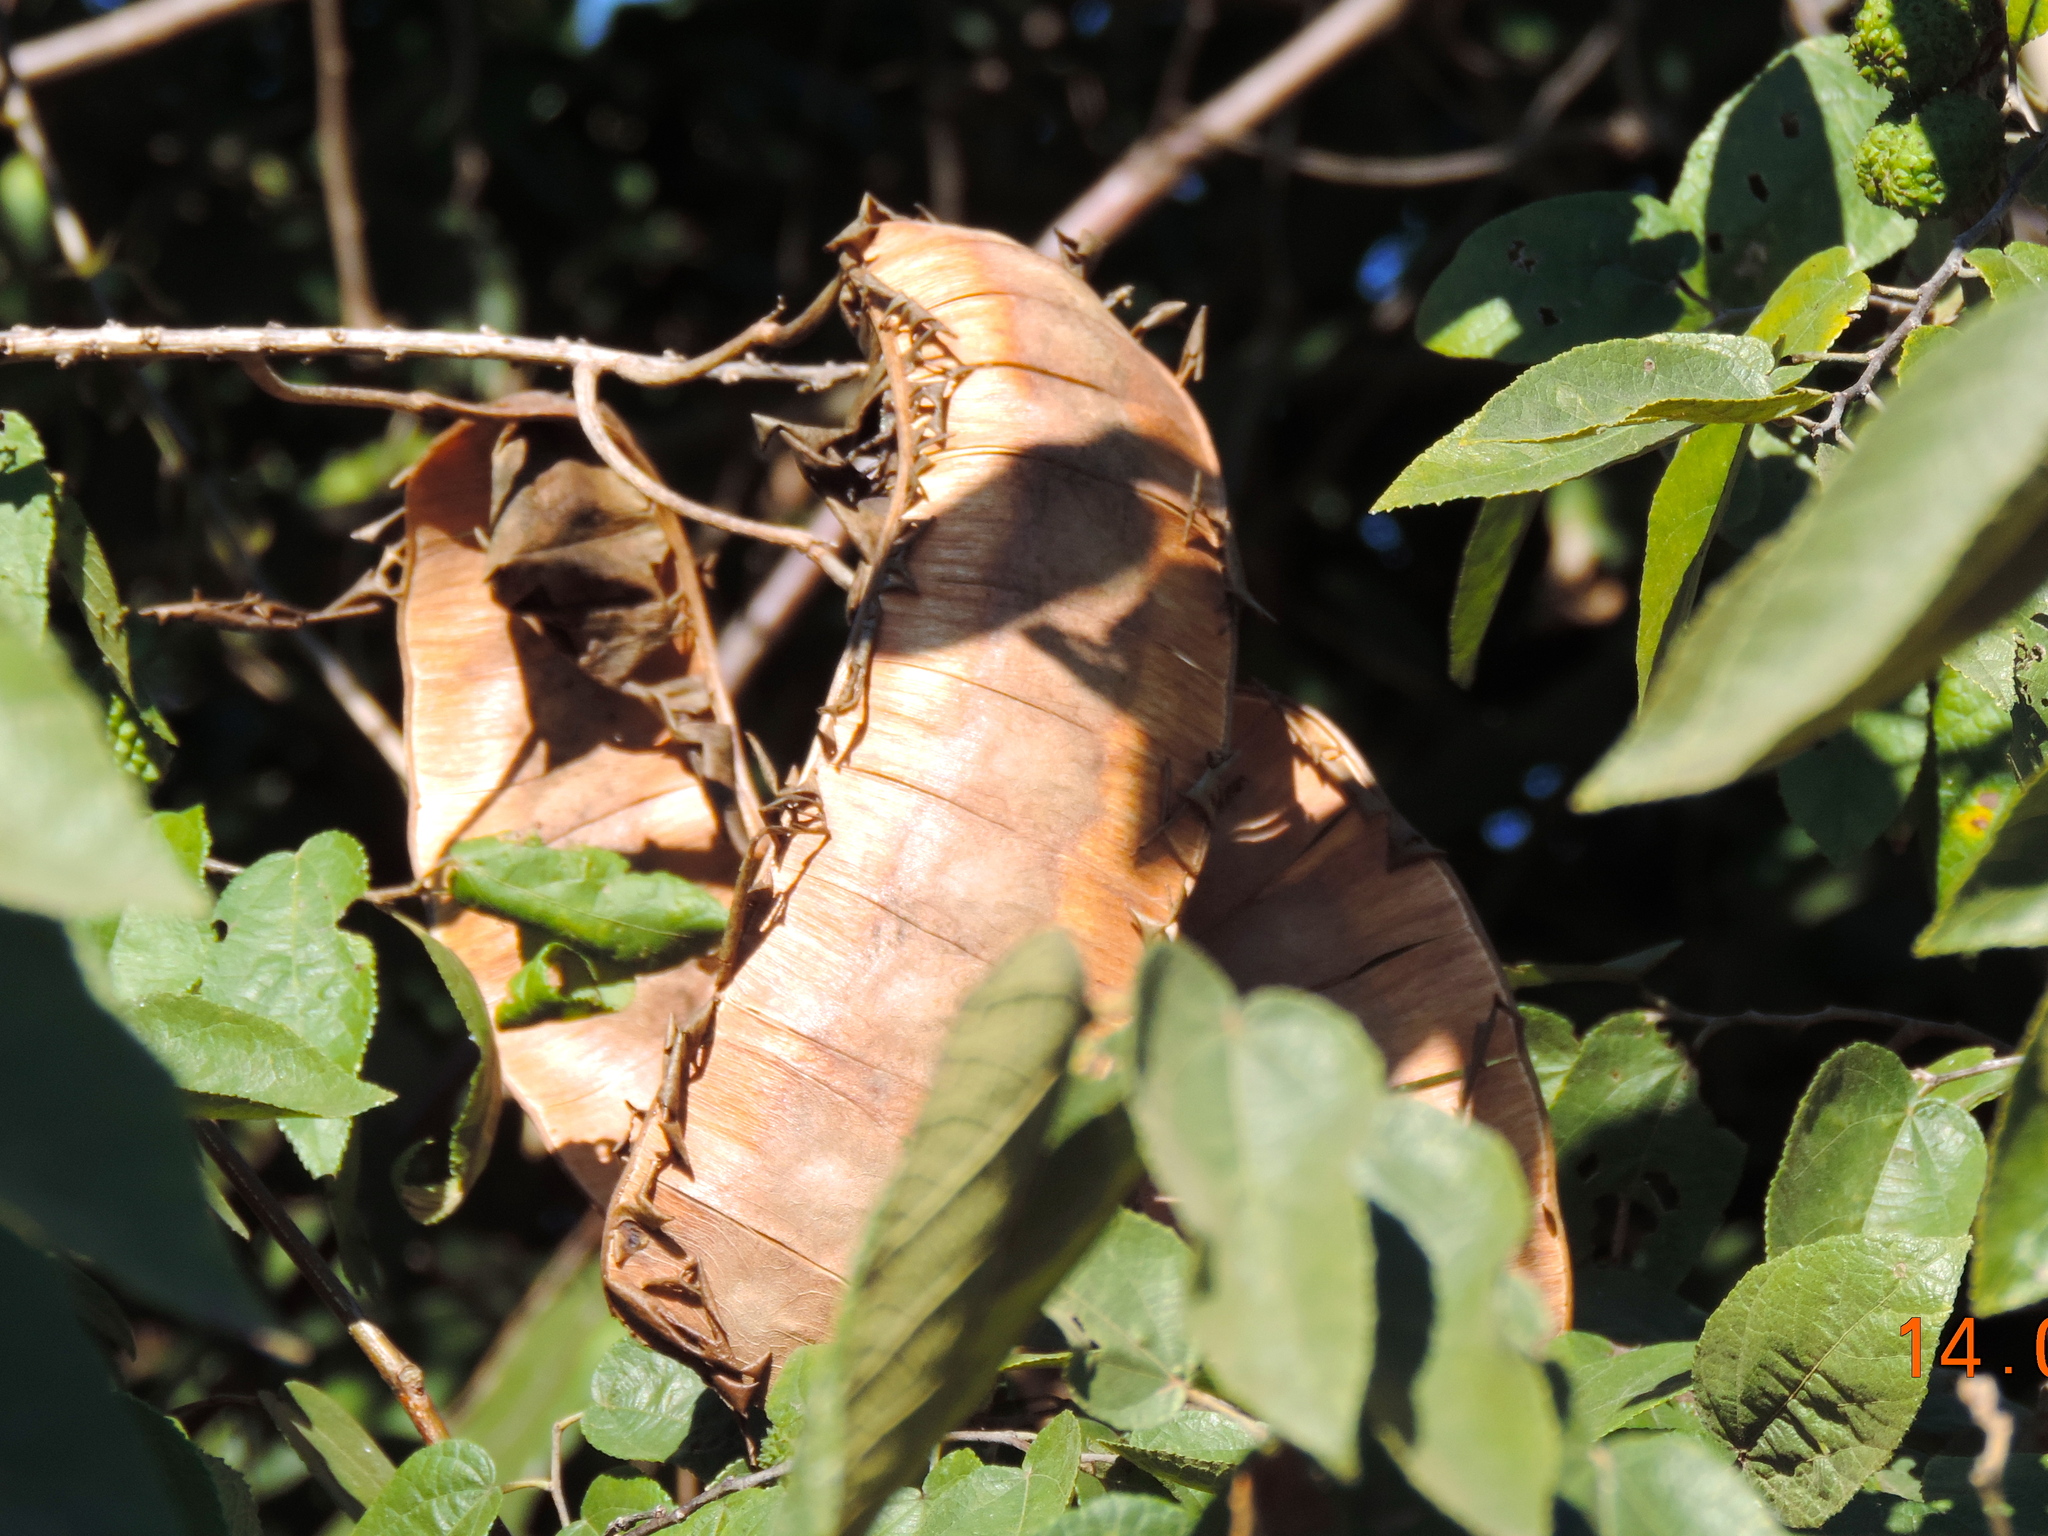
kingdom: Plantae
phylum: Tracheophyta
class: Magnoliopsida
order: Fabales
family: Fabaceae
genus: Entada
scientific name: Entada polystachya
